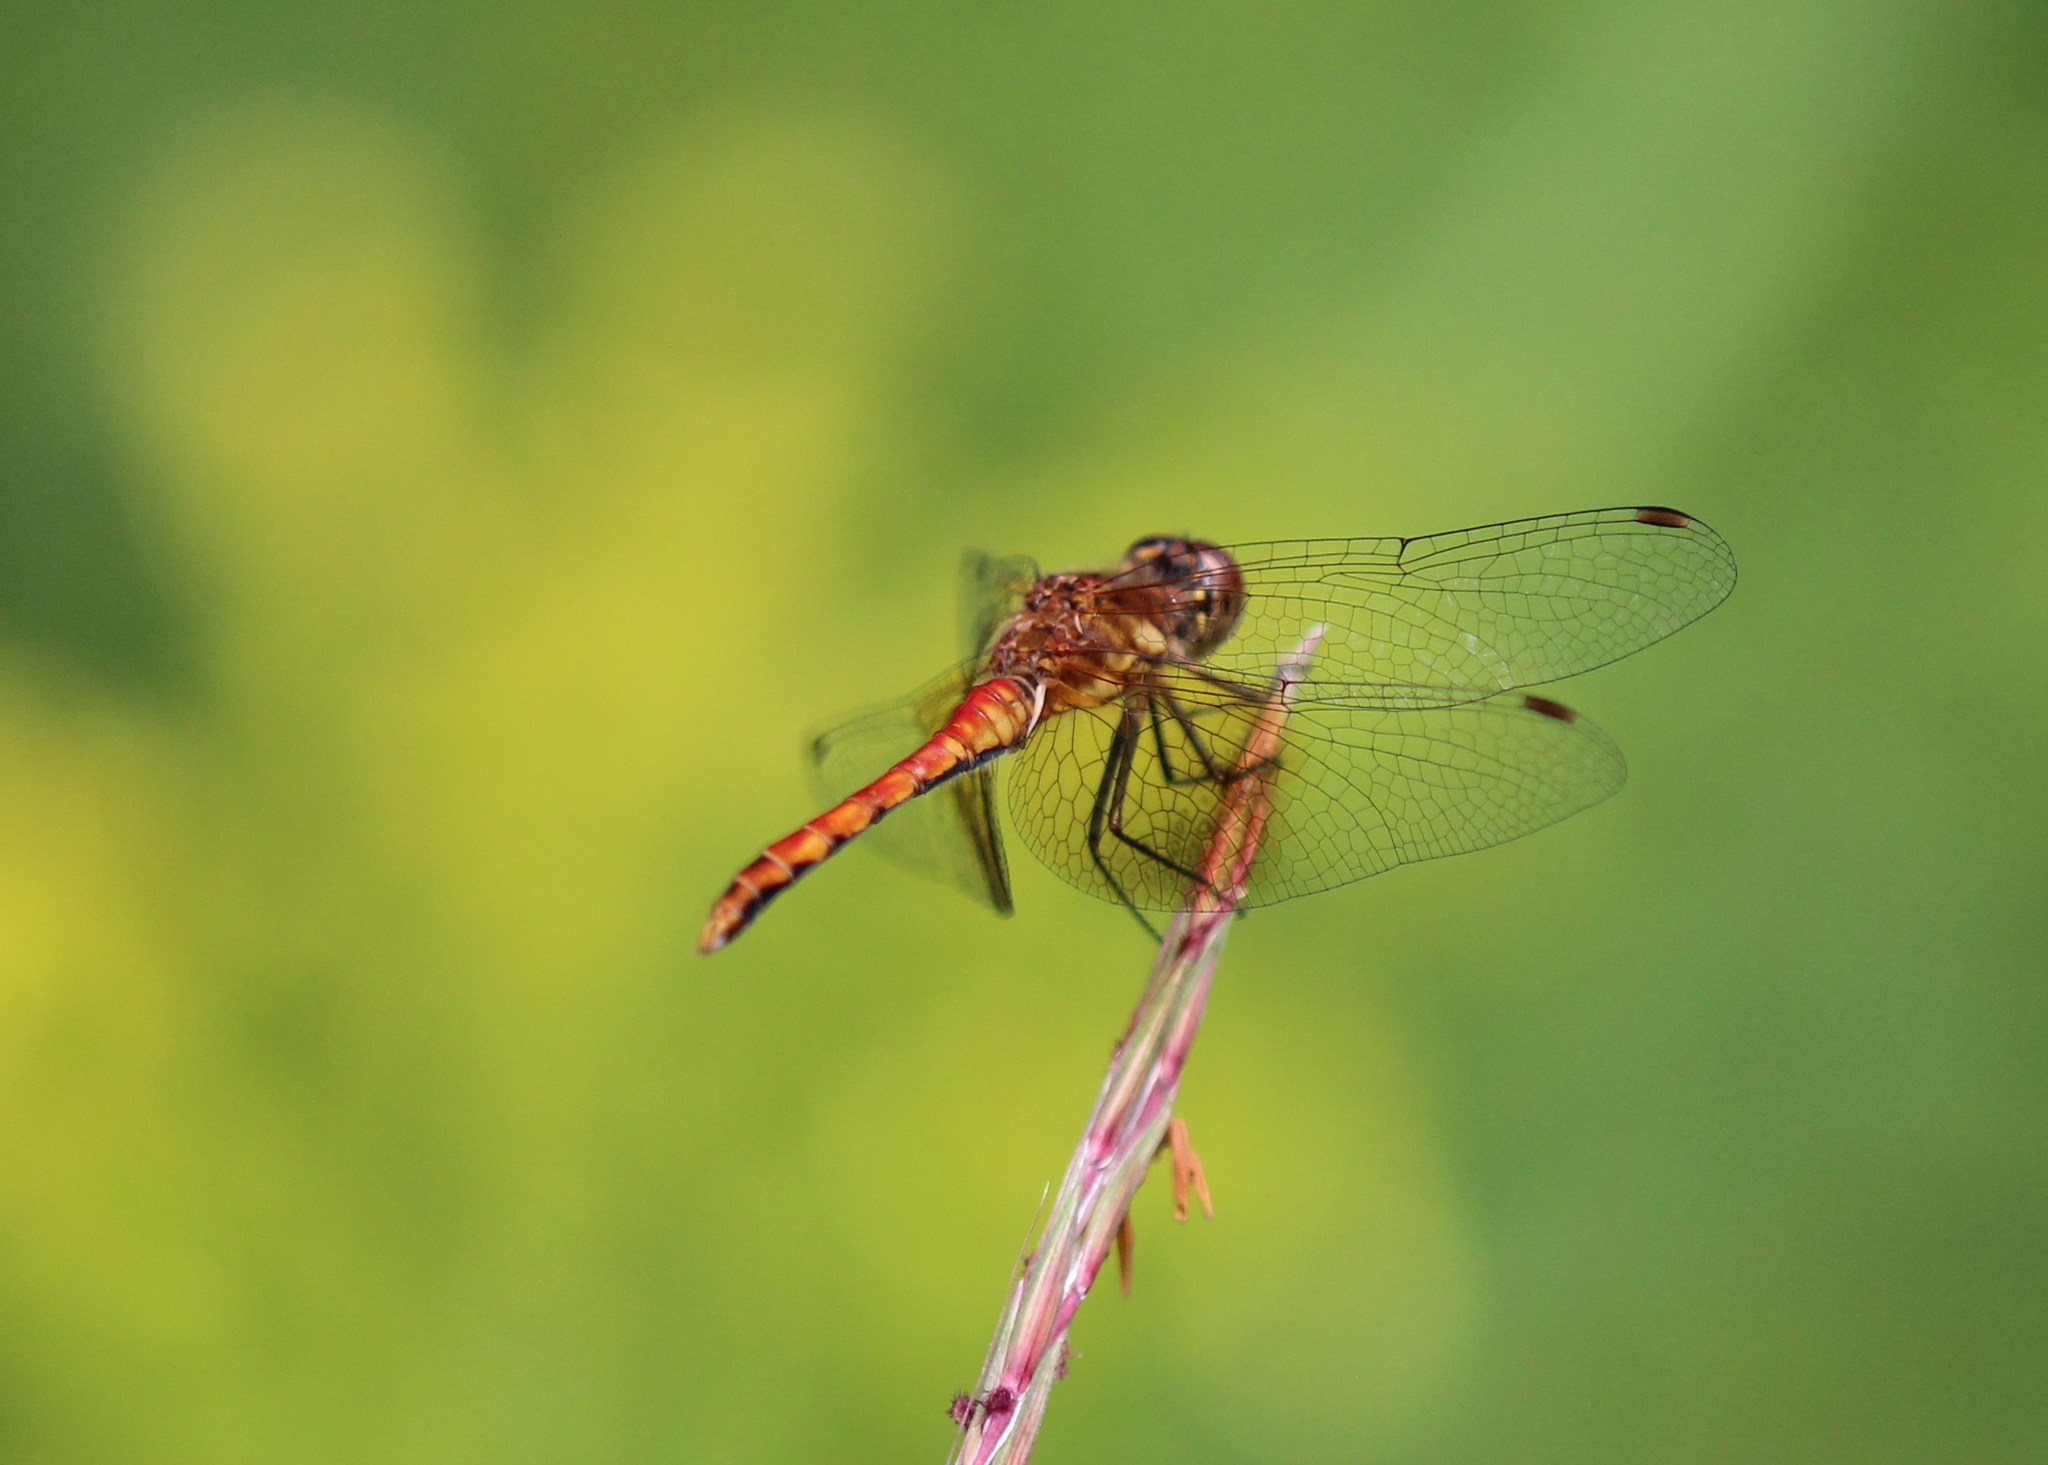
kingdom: Animalia
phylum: Arthropoda
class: Insecta
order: Odonata
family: Libellulidae
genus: Sympetrum
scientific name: Sympetrum semicinctum
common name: Band-winged meadowhawk
